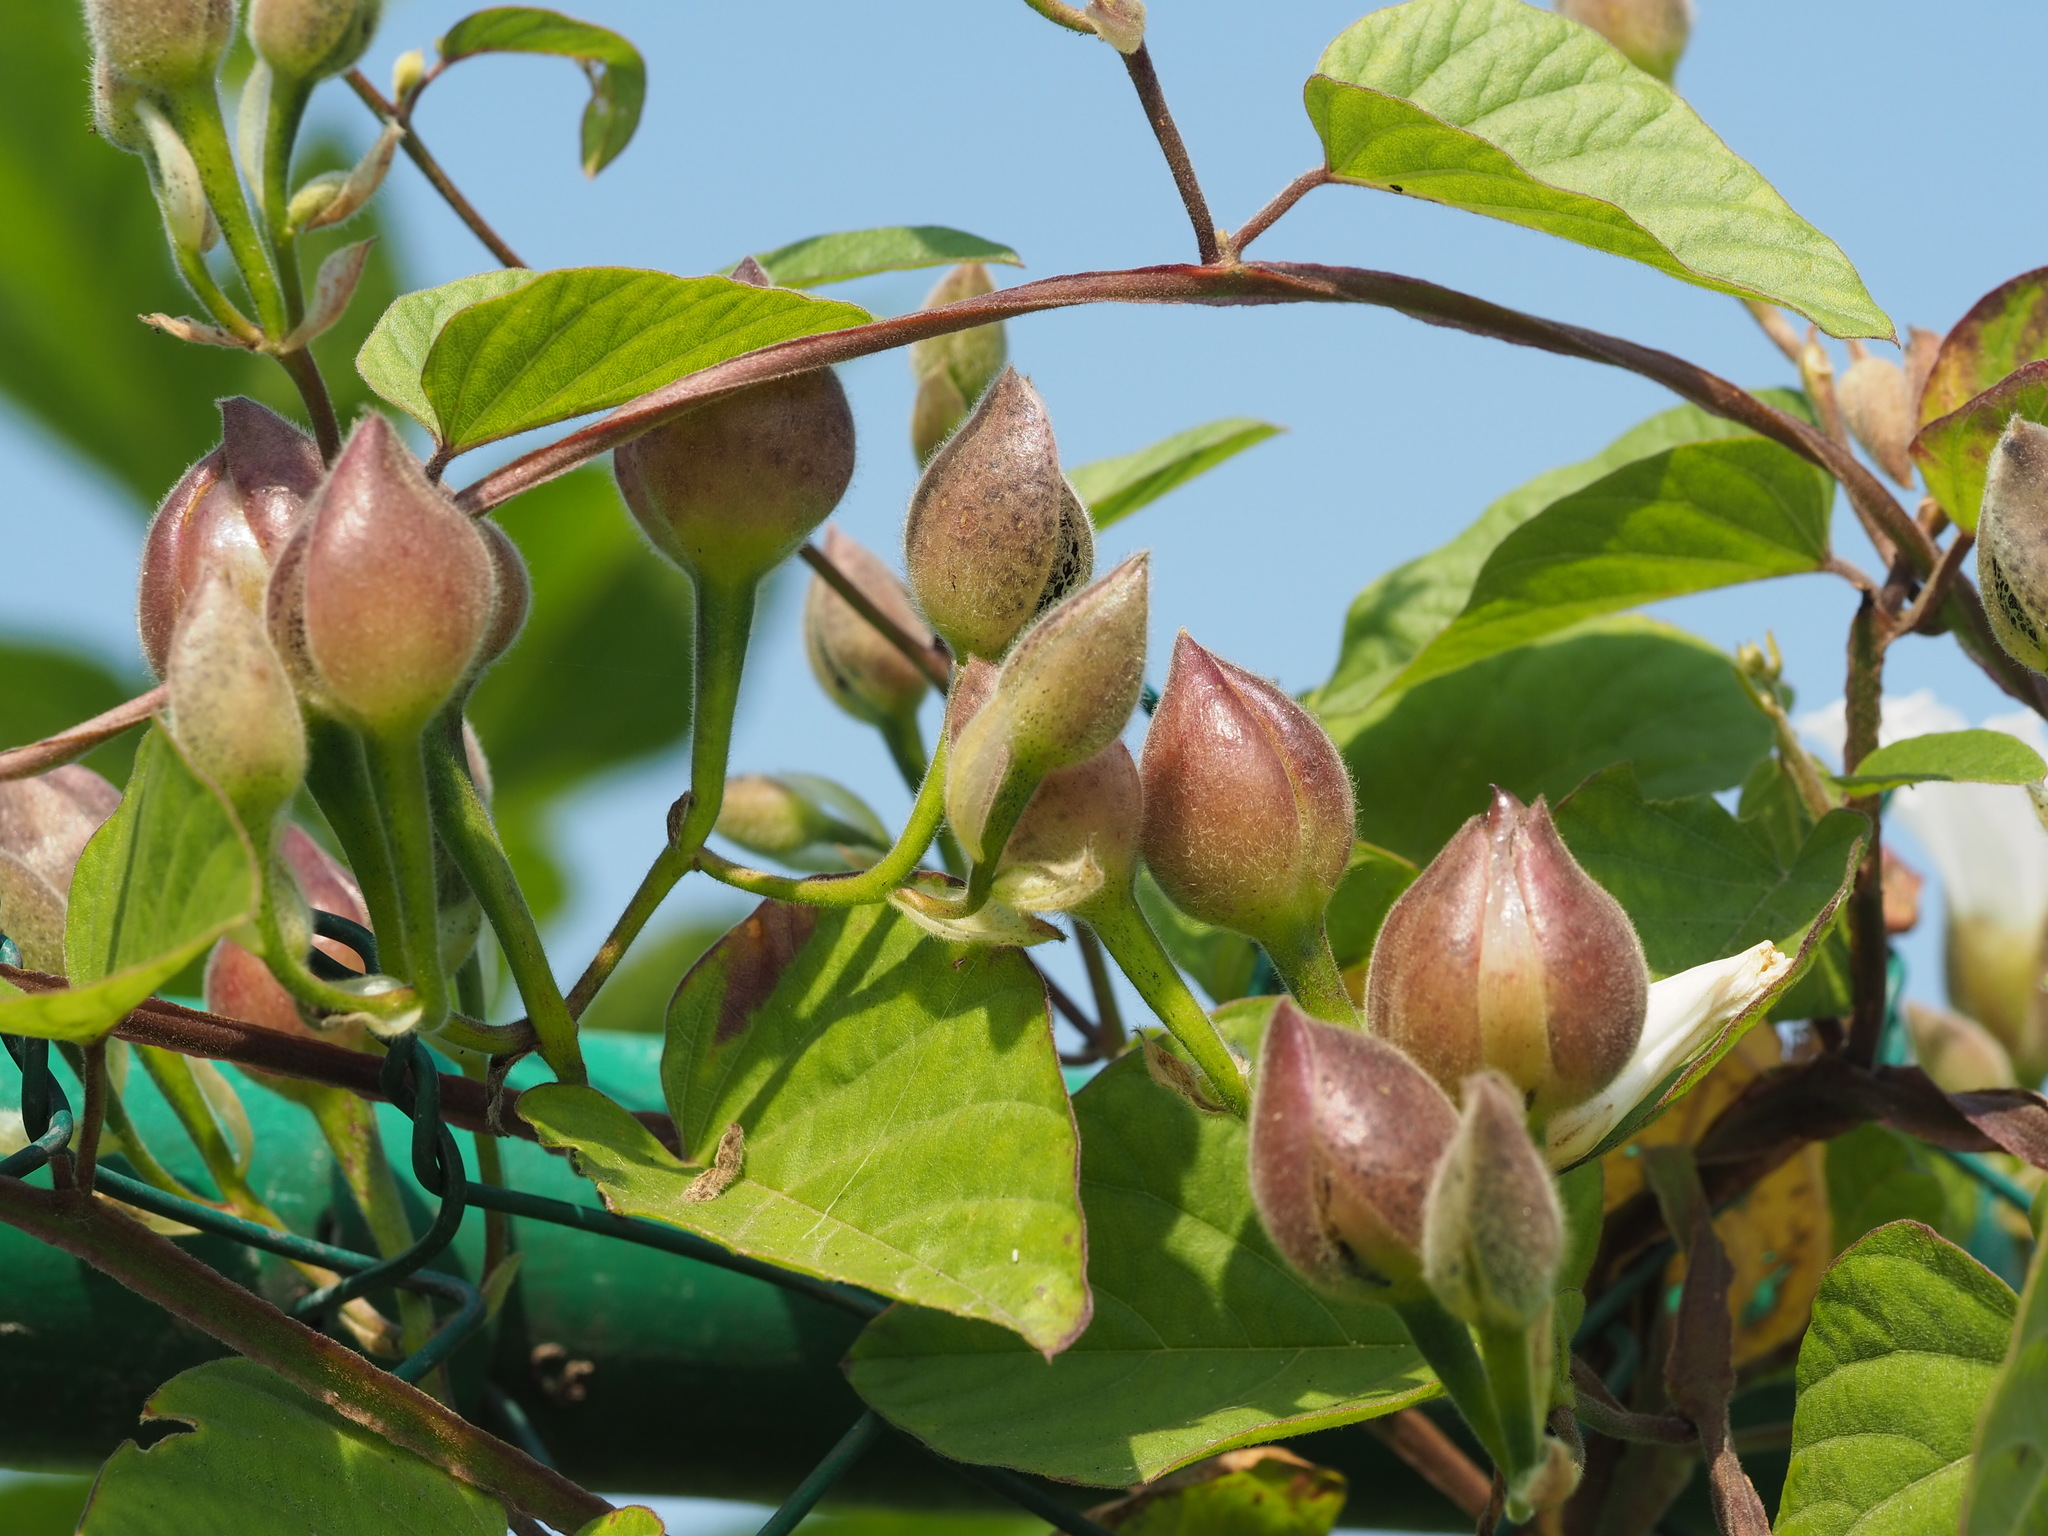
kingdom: Plantae
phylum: Tracheophyta
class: Magnoliopsida
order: Solanales
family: Convolvulaceae
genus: Operculina
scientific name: Operculina turpethum
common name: Transparent wood-rose
